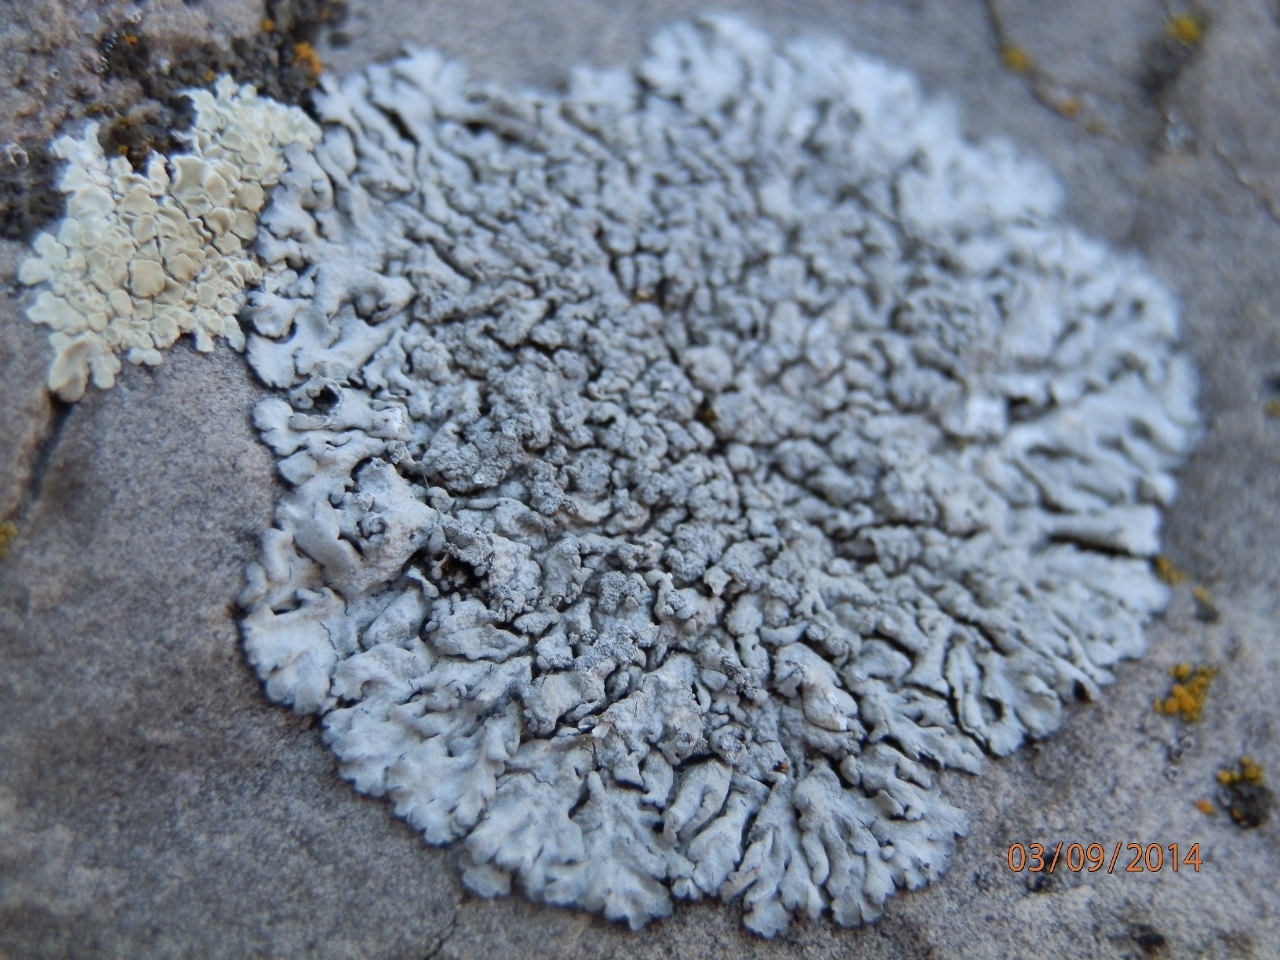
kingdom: Fungi
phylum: Ascomycota
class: Lecanoromycetes
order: Caliciales
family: Physciaceae
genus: Physcia
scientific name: Physcia caesia
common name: Blue-gray rosette lichen
